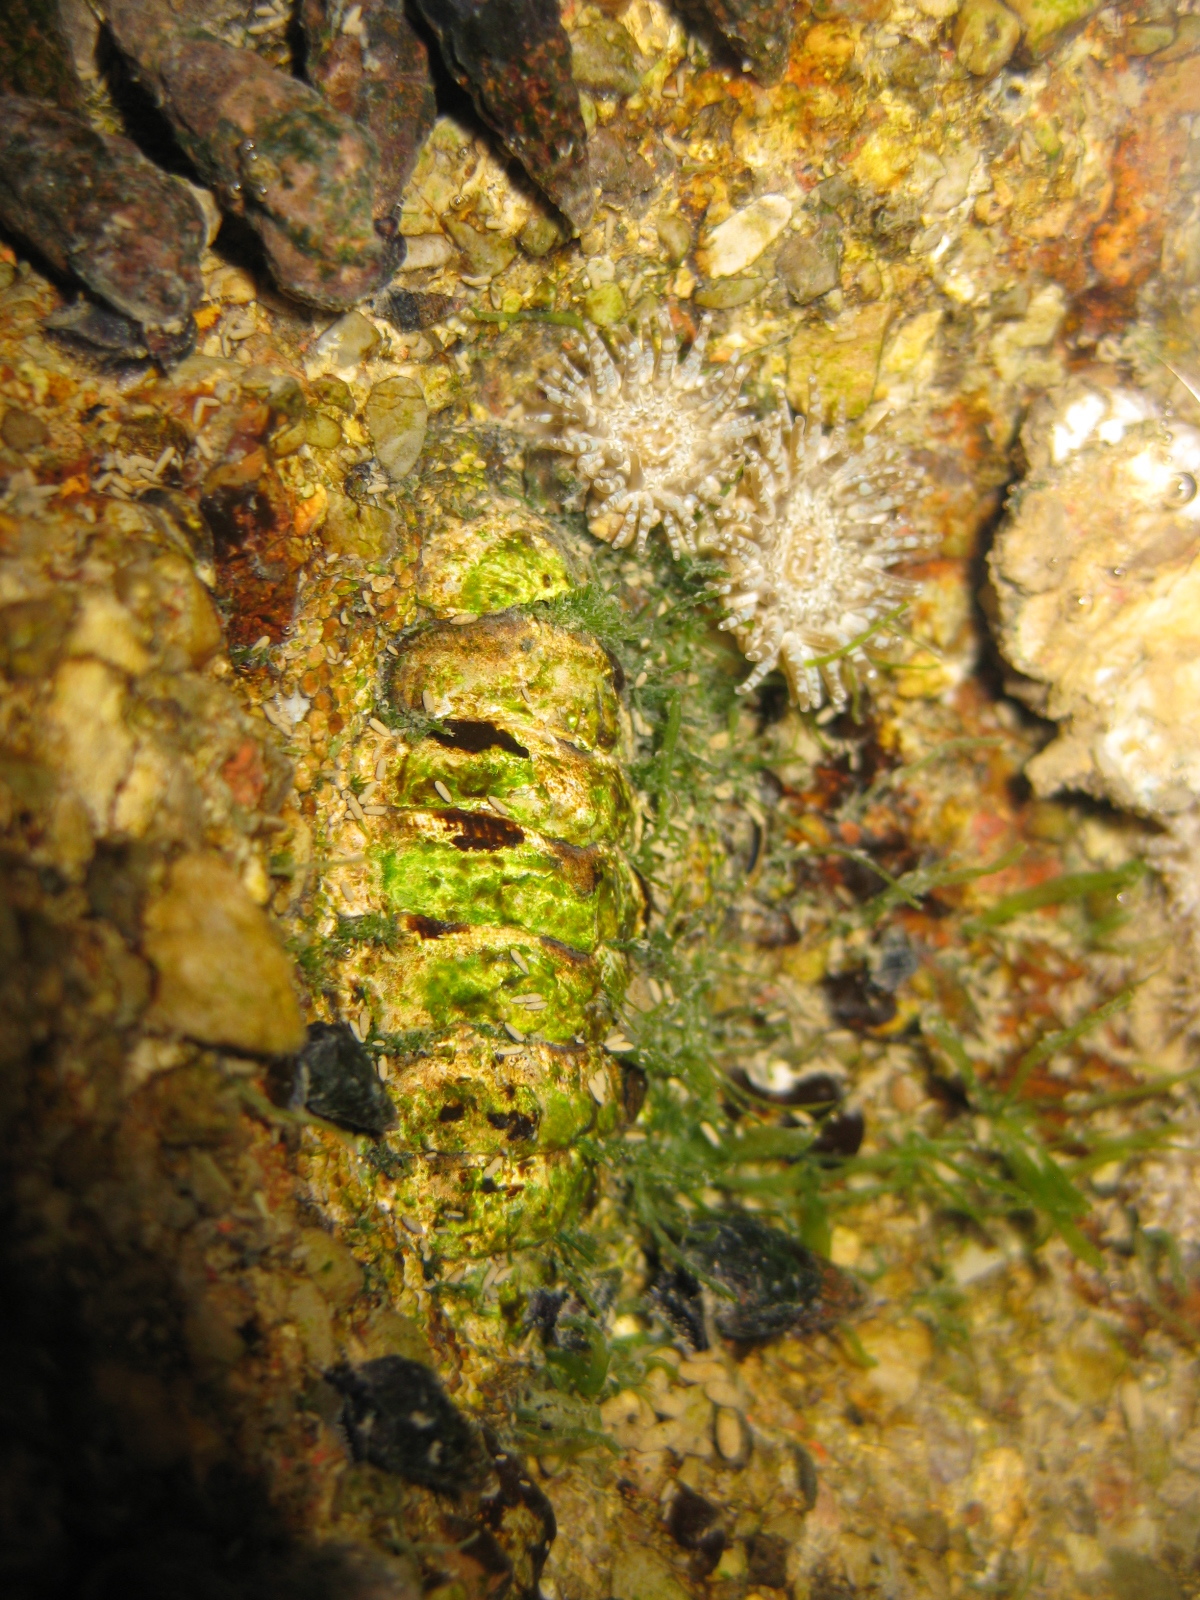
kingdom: Animalia
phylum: Mollusca
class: Polyplacophora
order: Chitonida
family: Chitonidae
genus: Sypharochiton
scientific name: Sypharochiton pelliserpentis
